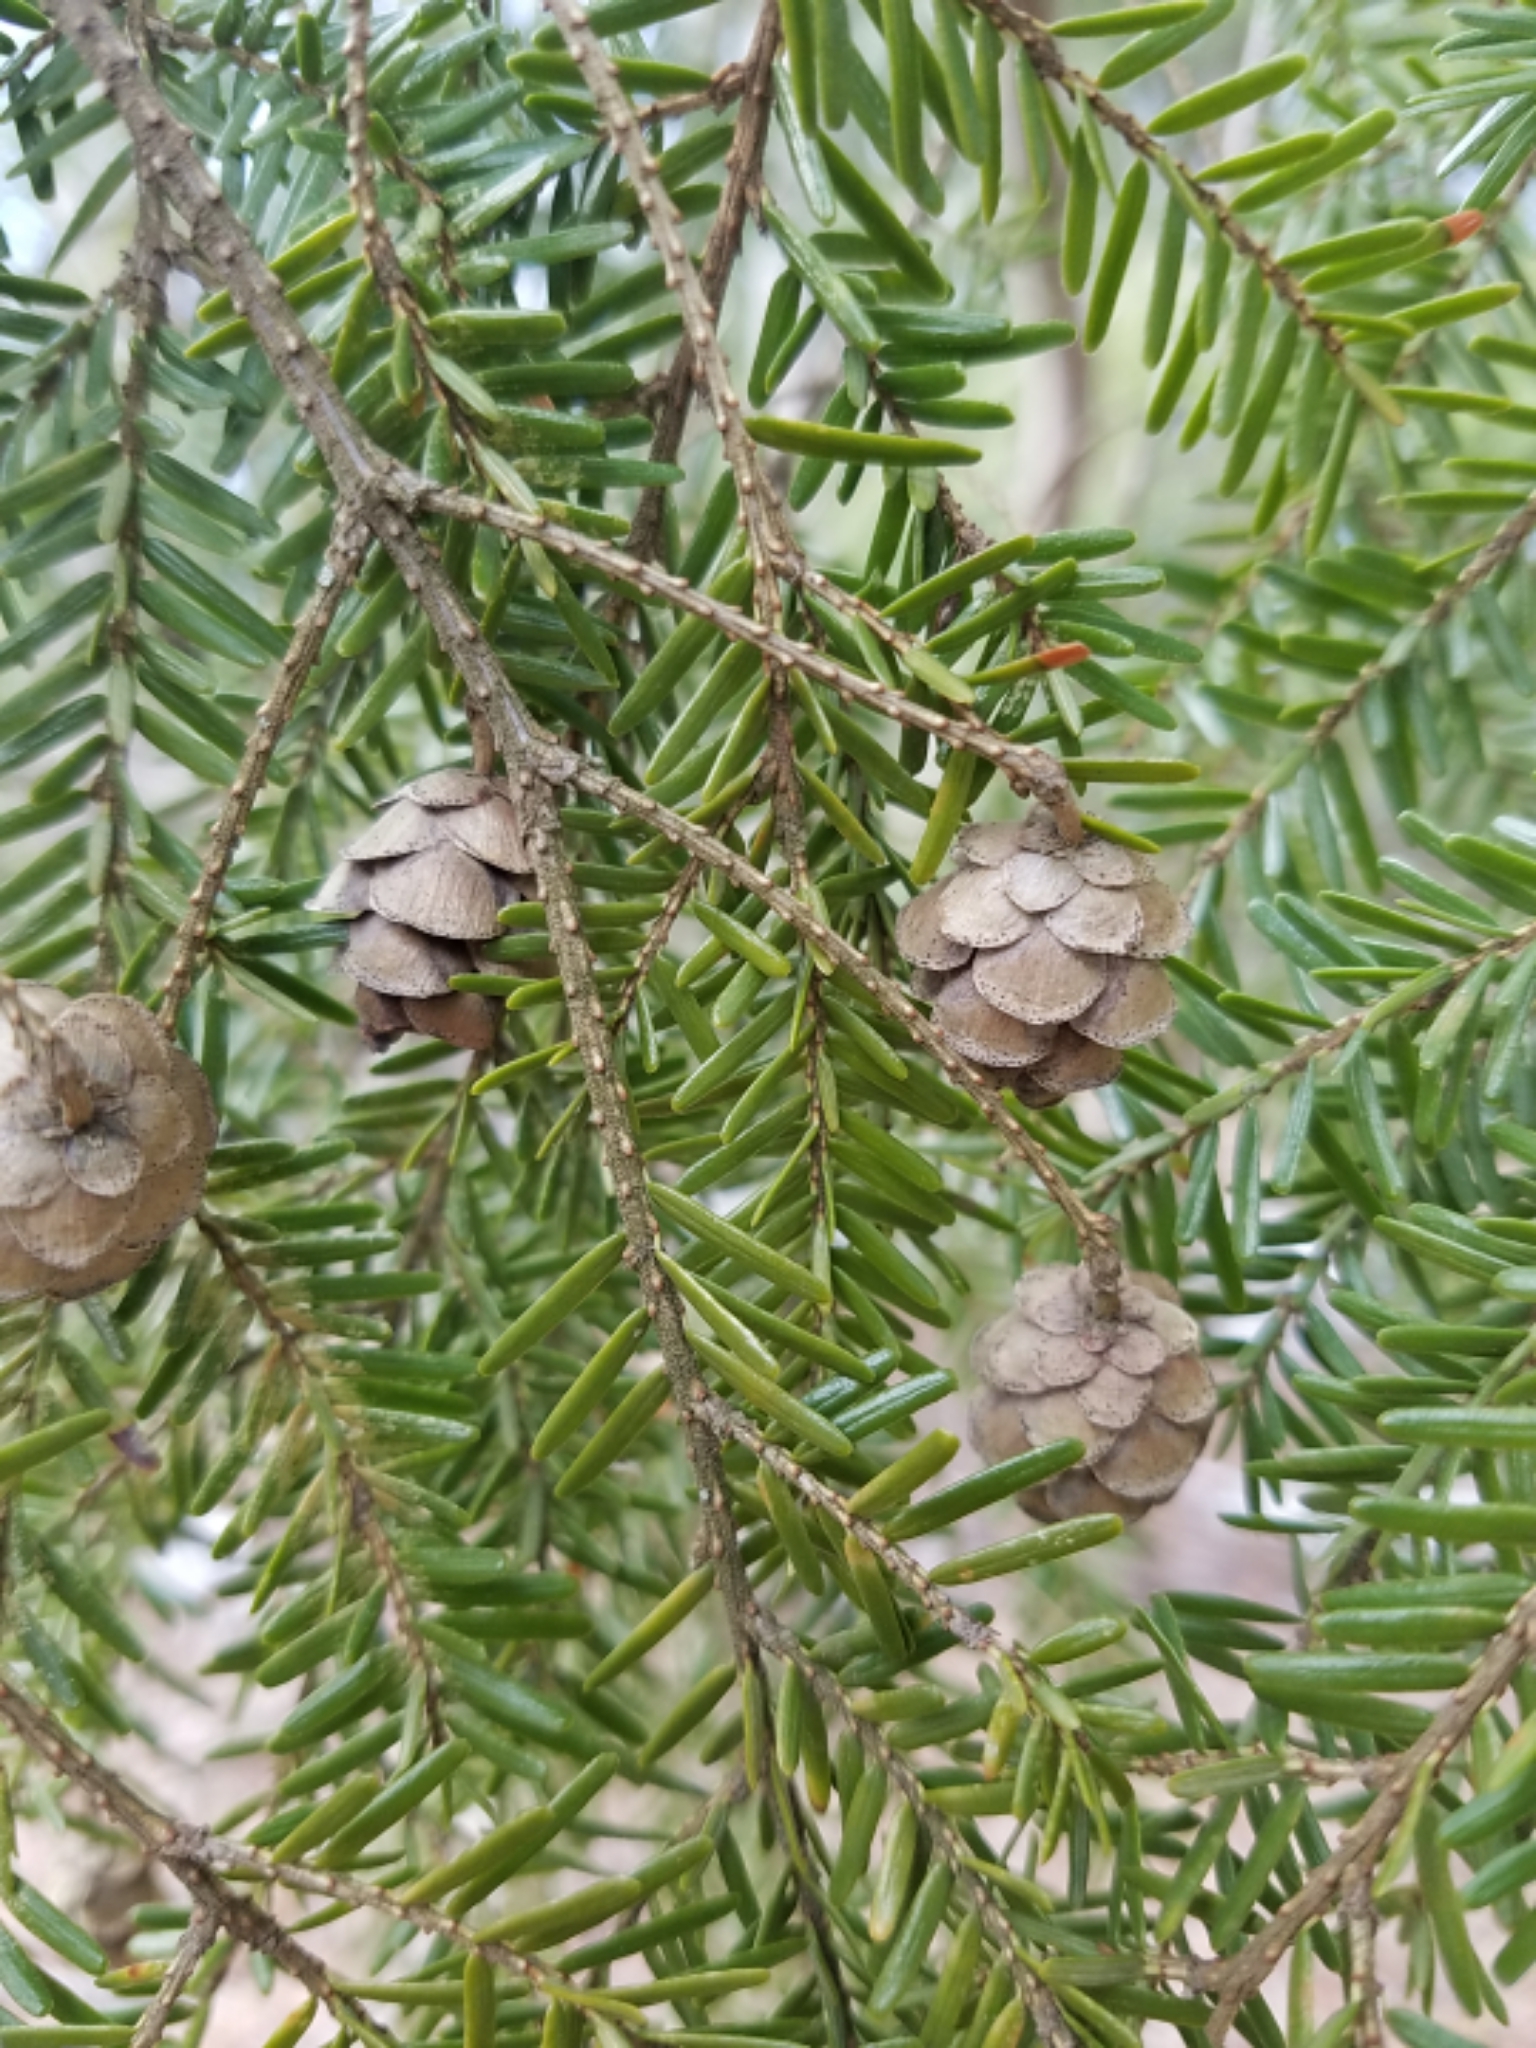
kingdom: Plantae
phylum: Tracheophyta
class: Pinopsida
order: Pinales
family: Pinaceae
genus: Tsuga
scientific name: Tsuga canadensis
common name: Eastern hemlock
